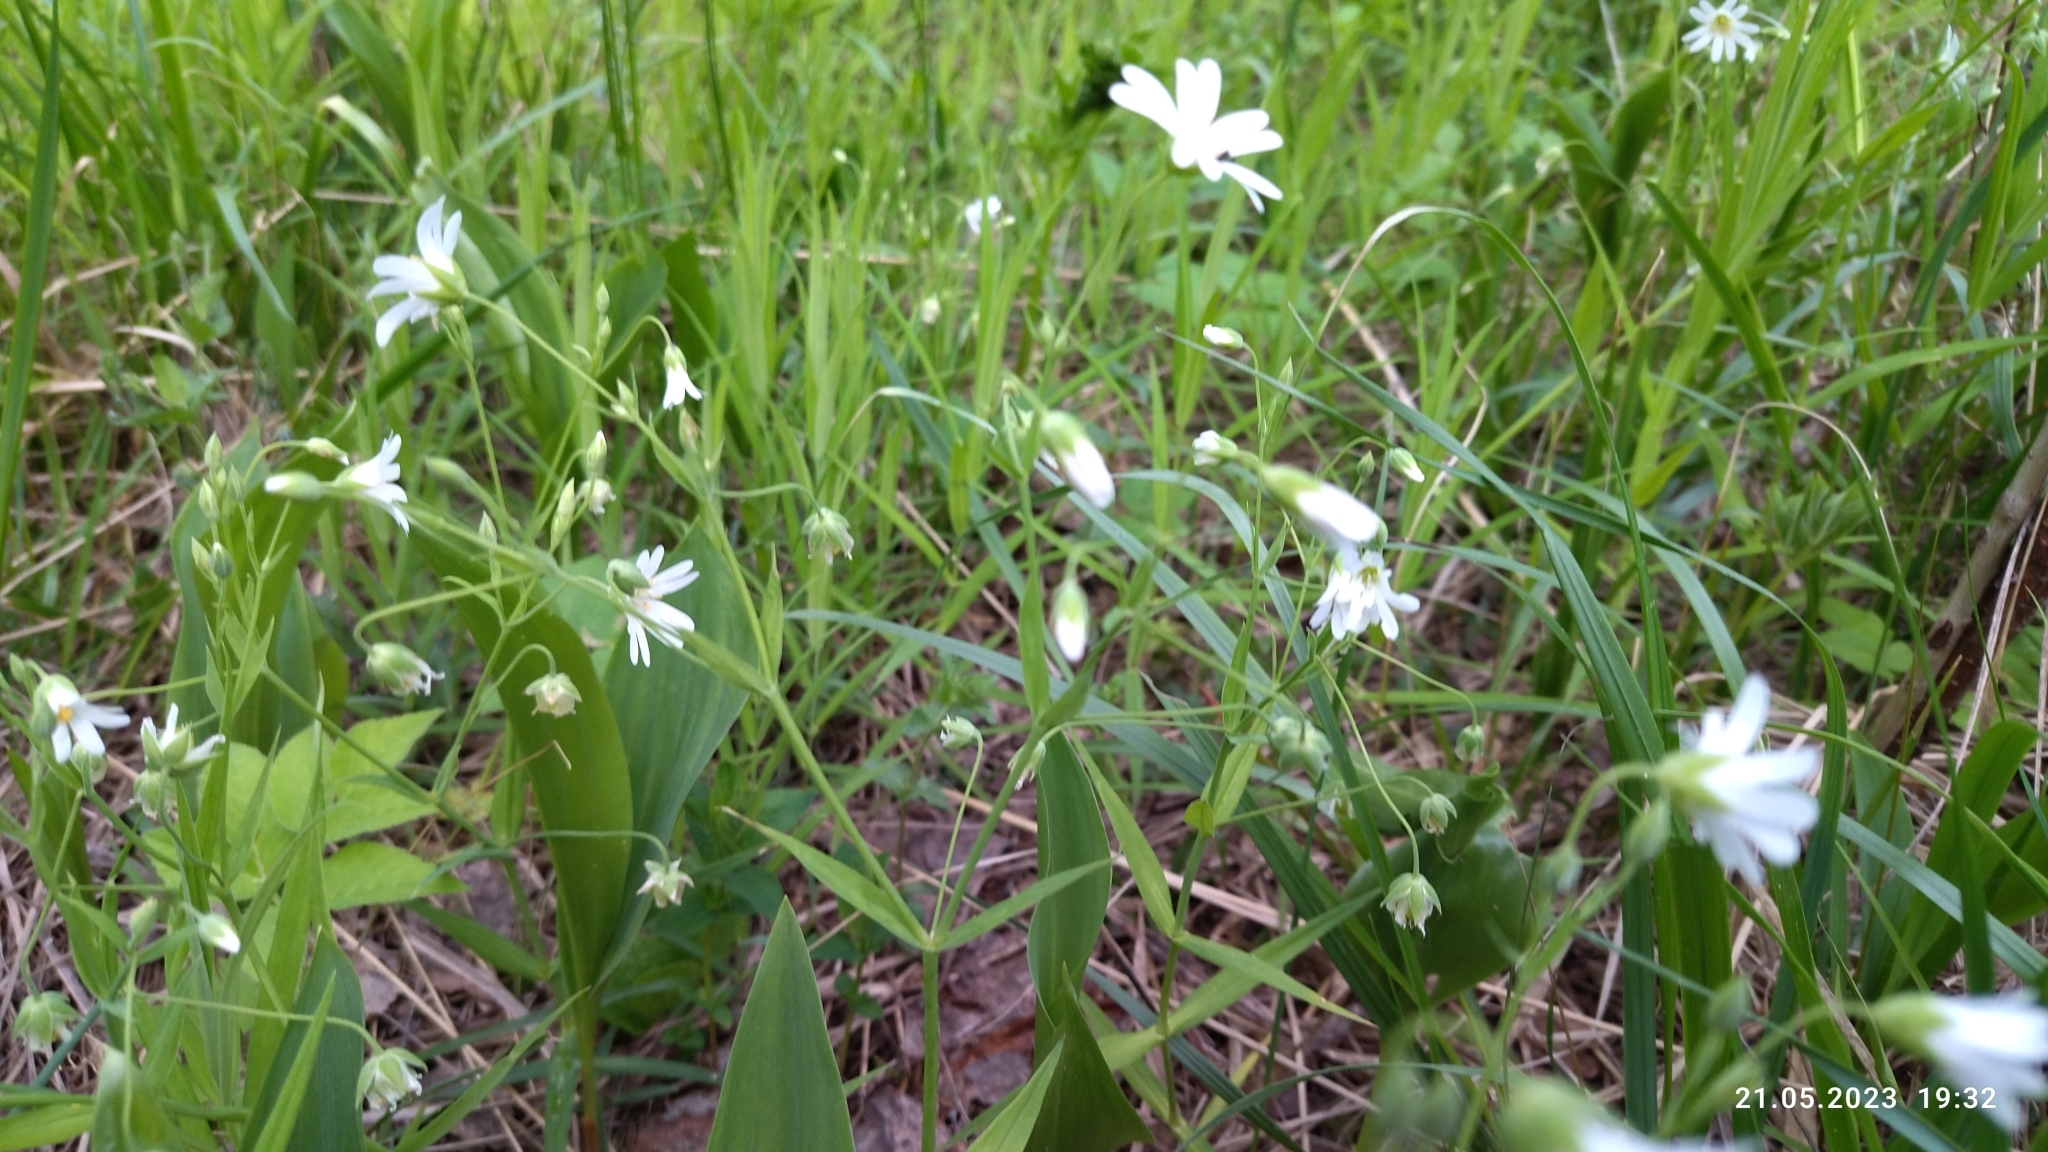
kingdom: Plantae
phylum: Tracheophyta
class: Magnoliopsida
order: Caryophyllales
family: Caryophyllaceae
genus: Rabelera
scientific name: Rabelera holostea
